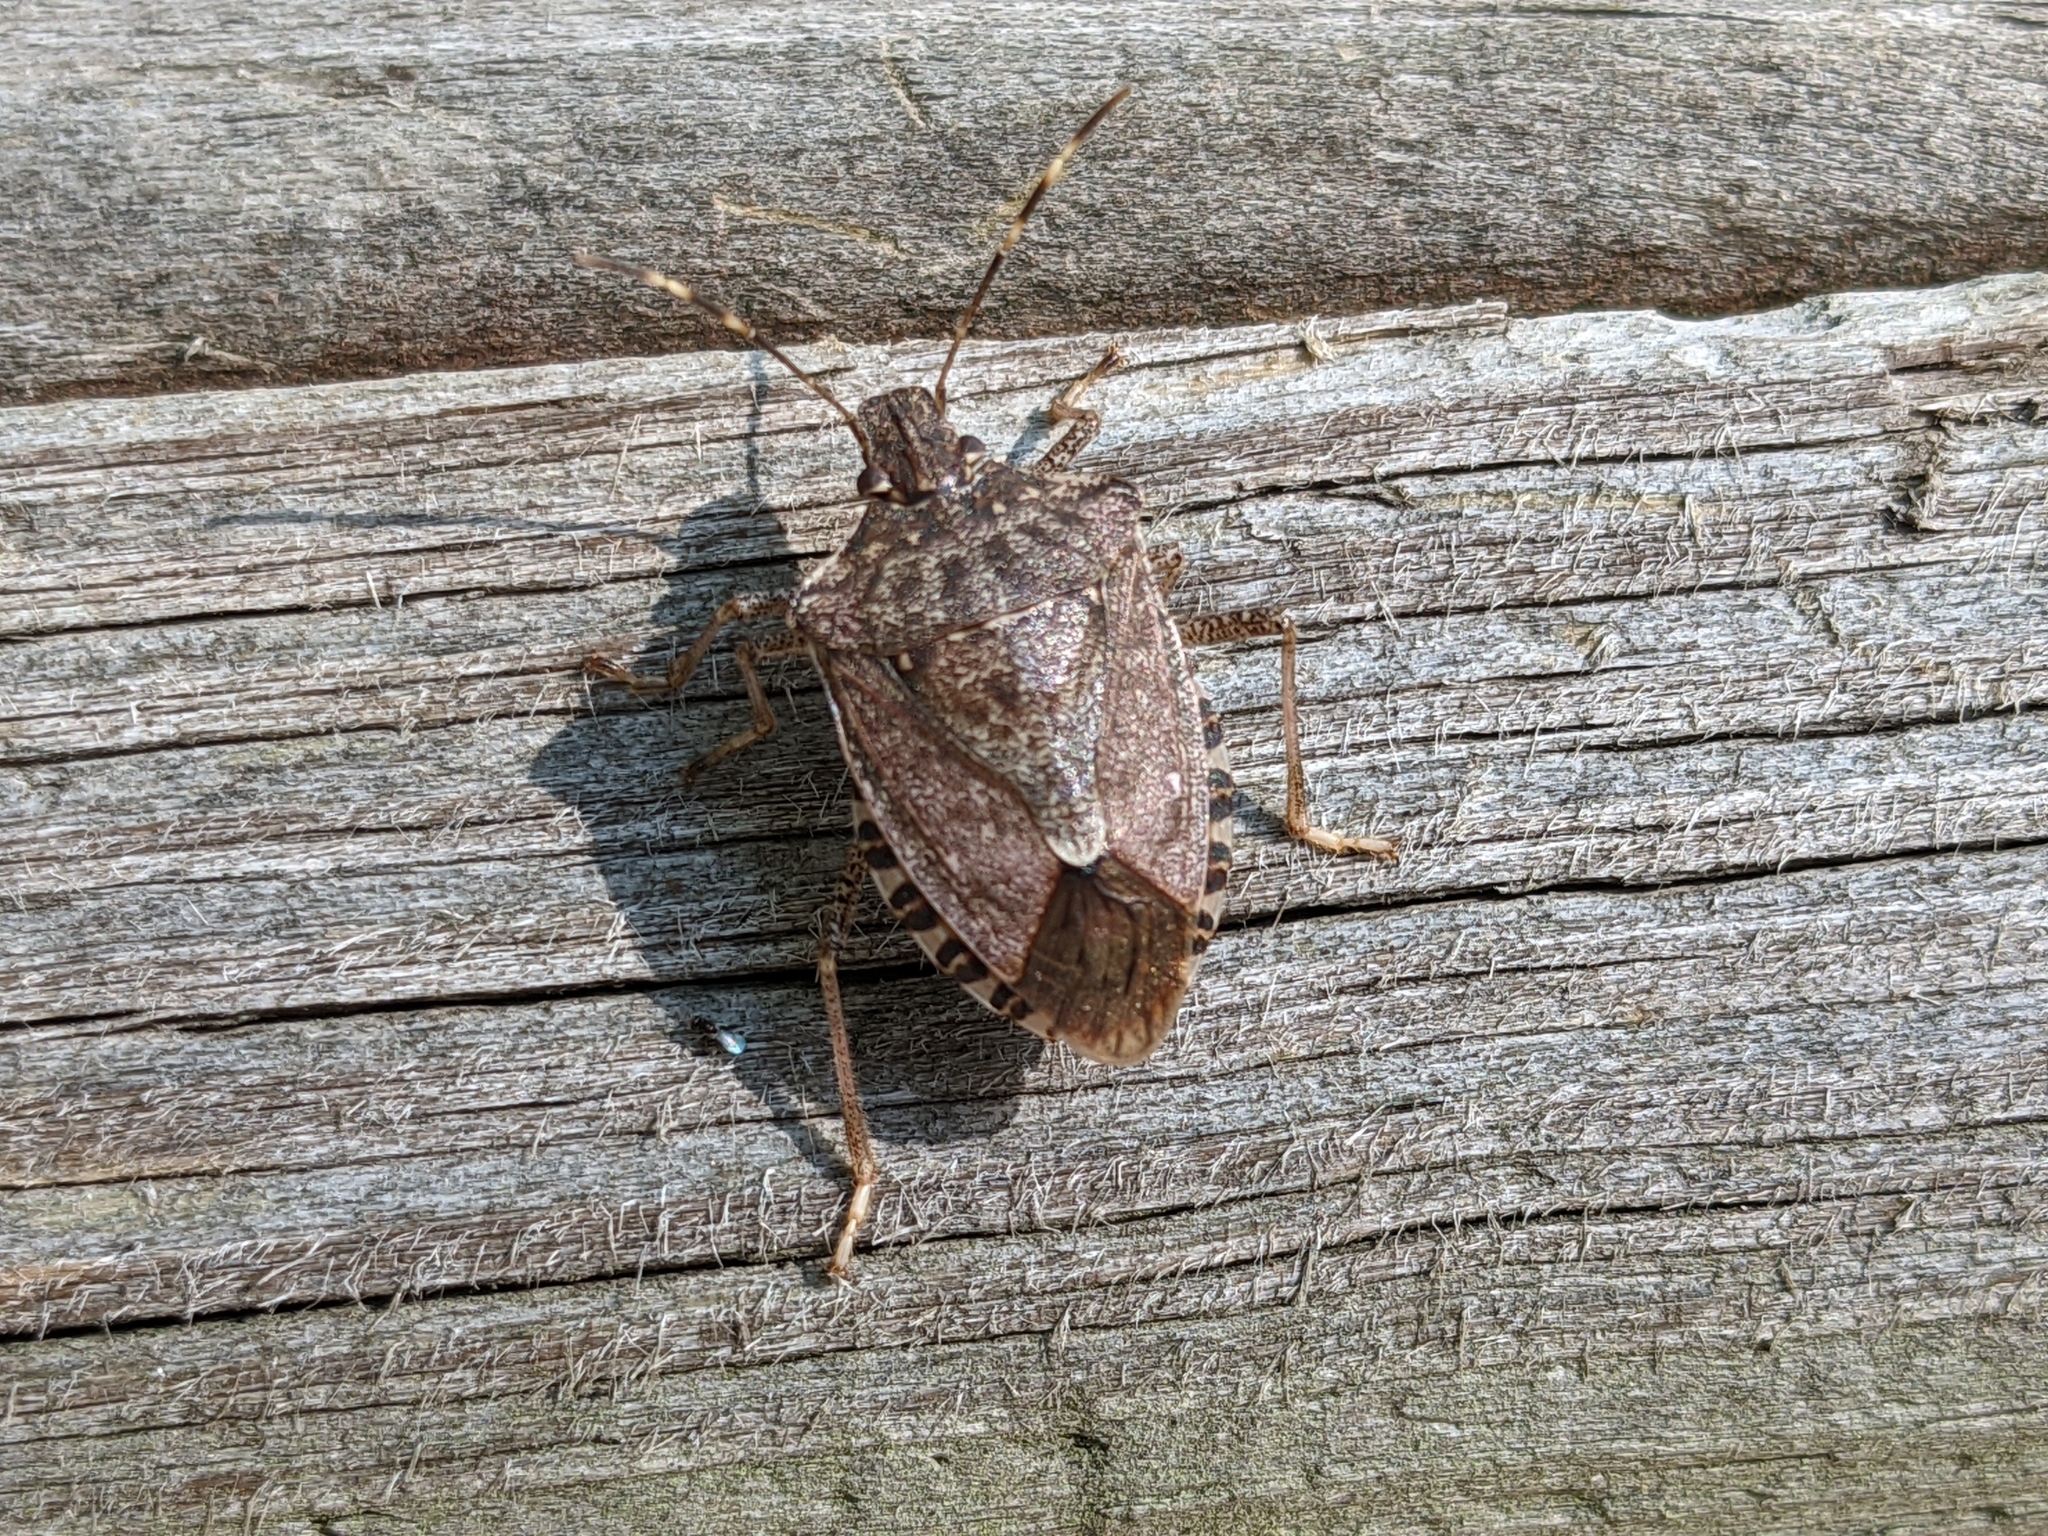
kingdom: Animalia
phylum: Arthropoda
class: Insecta
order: Hemiptera
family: Pentatomidae
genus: Halyomorpha
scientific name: Halyomorpha halys
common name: Brown marmorated stink bug
